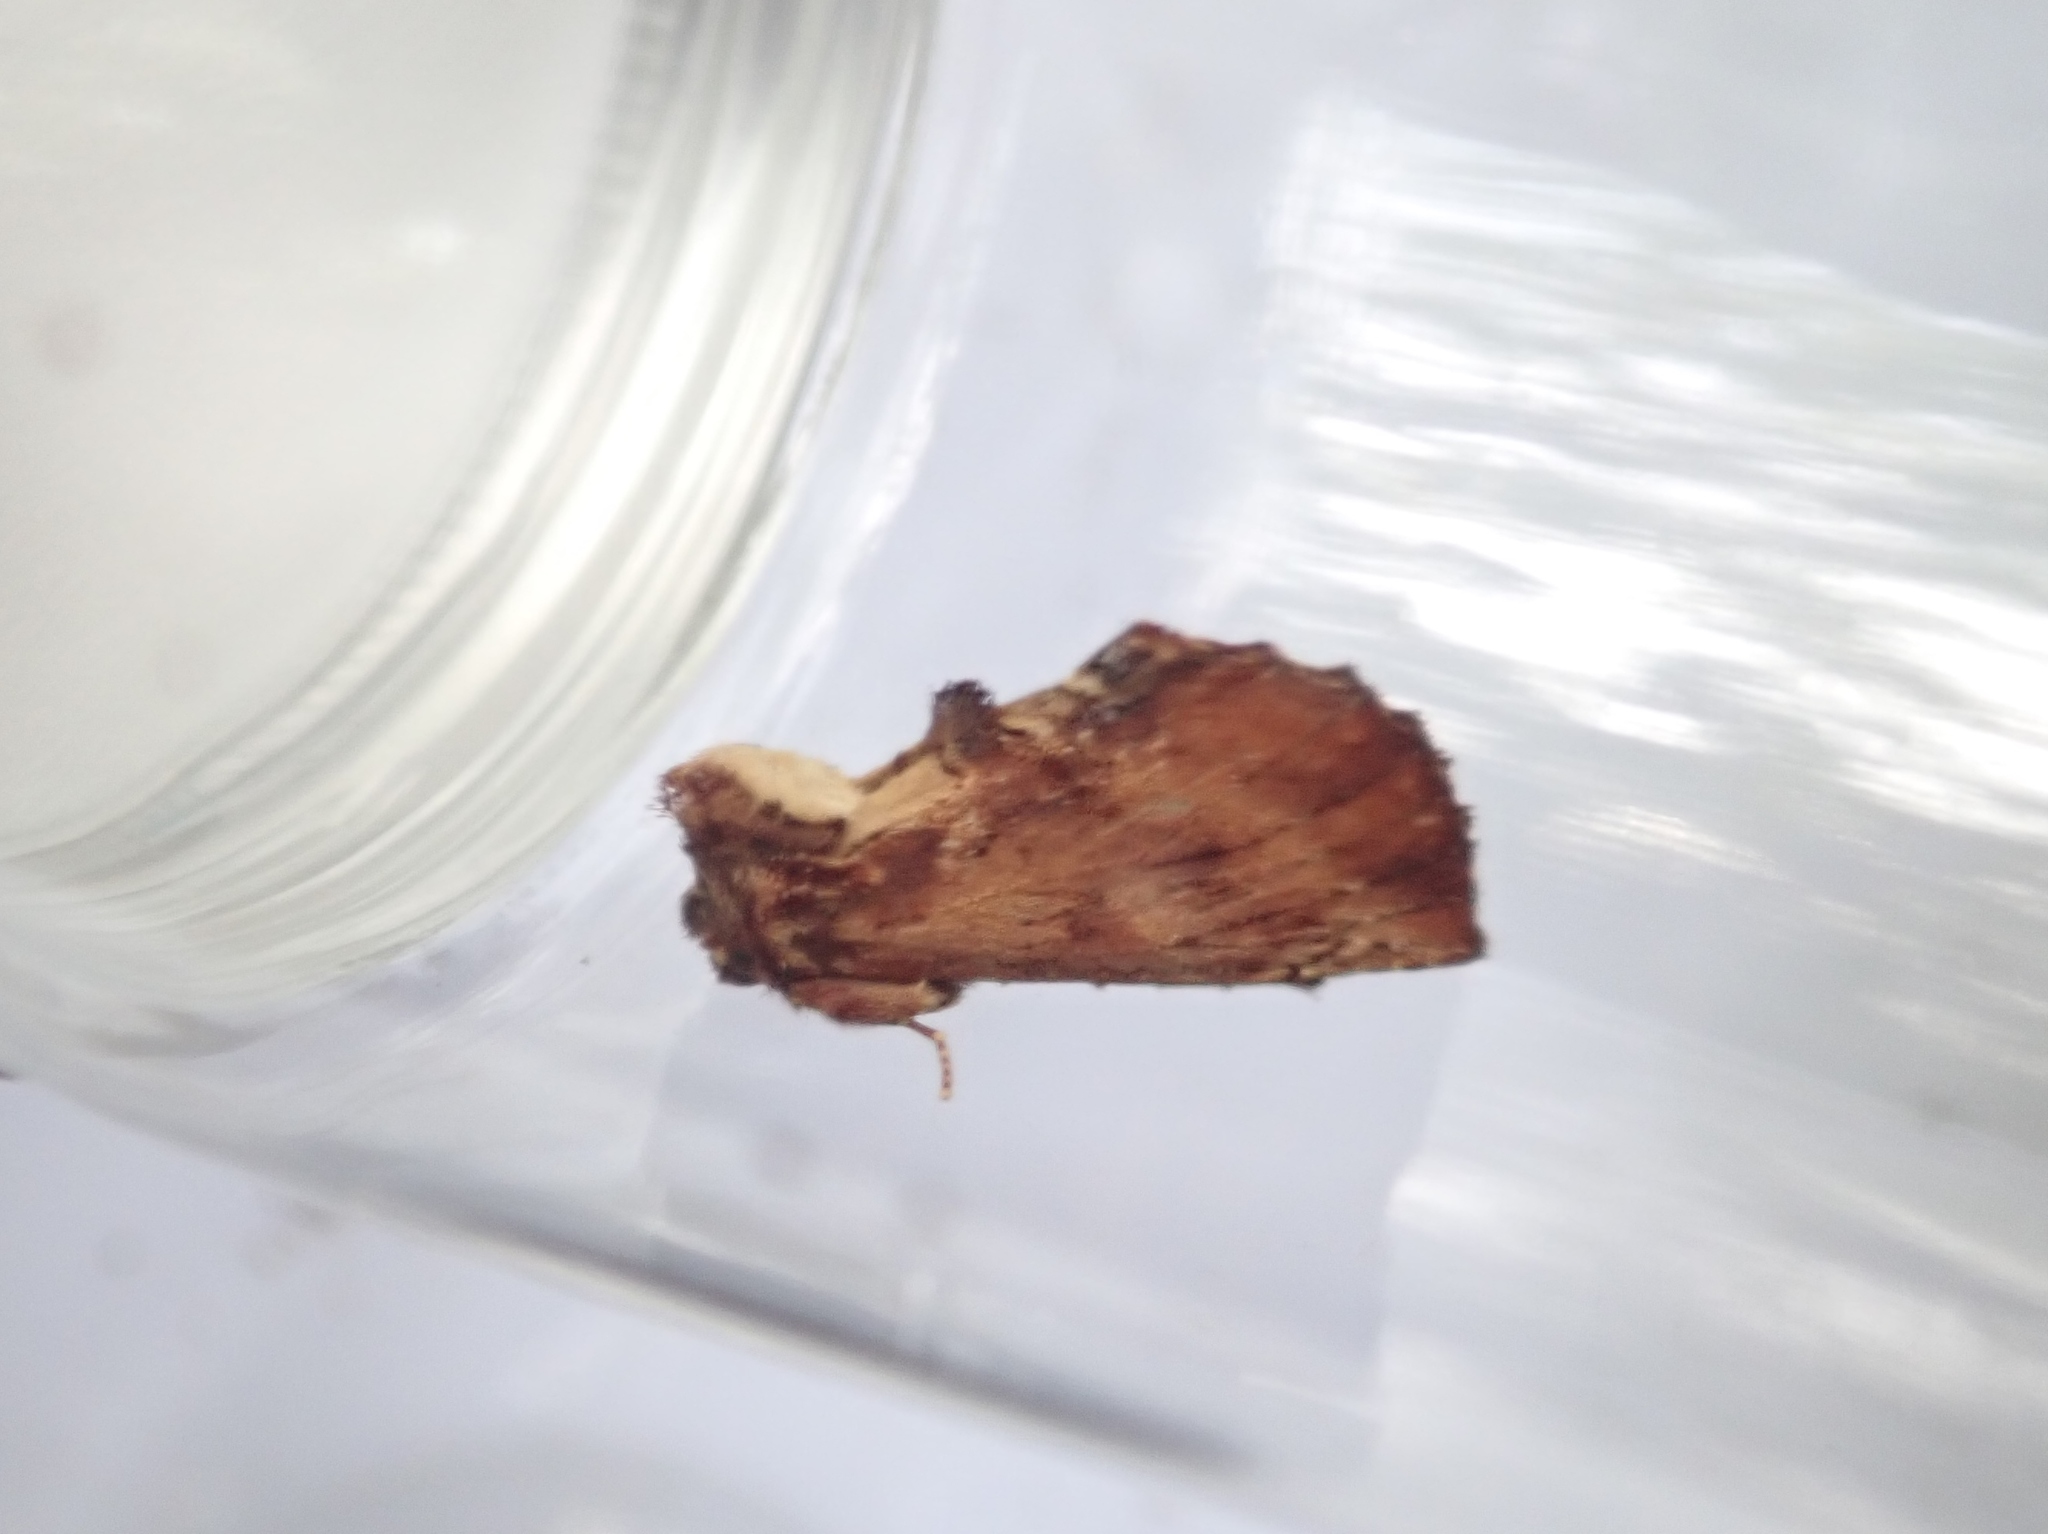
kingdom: Animalia
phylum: Arthropoda
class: Insecta
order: Lepidoptera
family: Notodontidae
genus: Ptilodon
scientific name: Ptilodon capucina
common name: Coxcomb prominent
